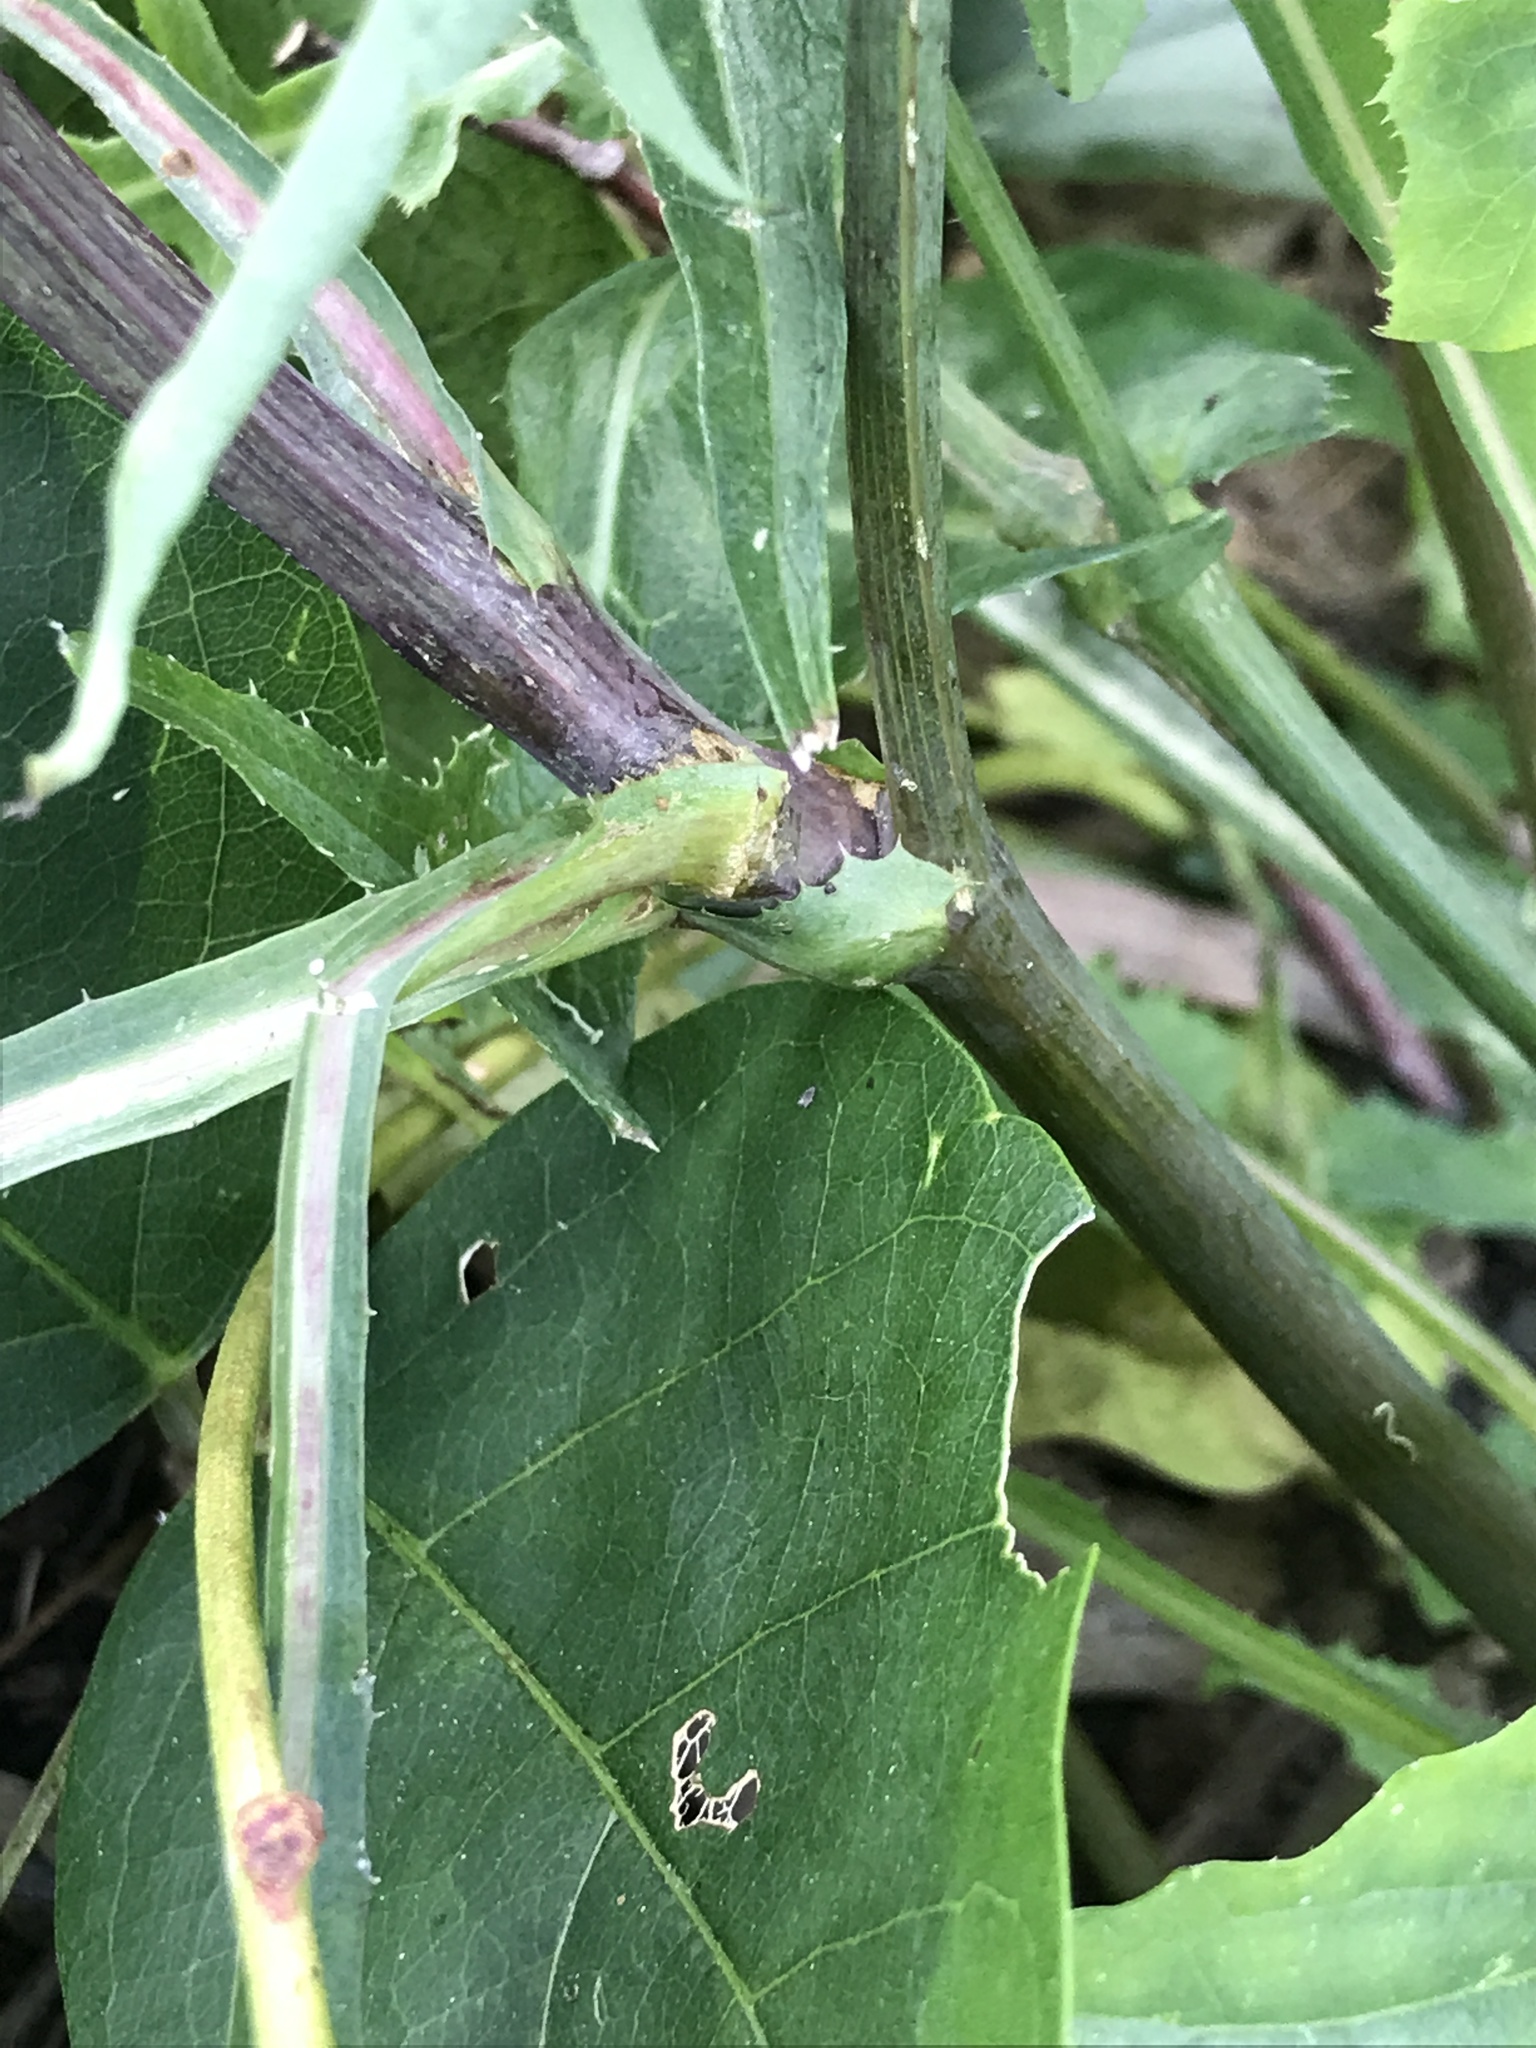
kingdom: Plantae
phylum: Tracheophyta
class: Magnoliopsida
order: Asterales
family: Asteraceae
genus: Sonchus
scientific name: Sonchus oleraceus
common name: Common sowthistle
